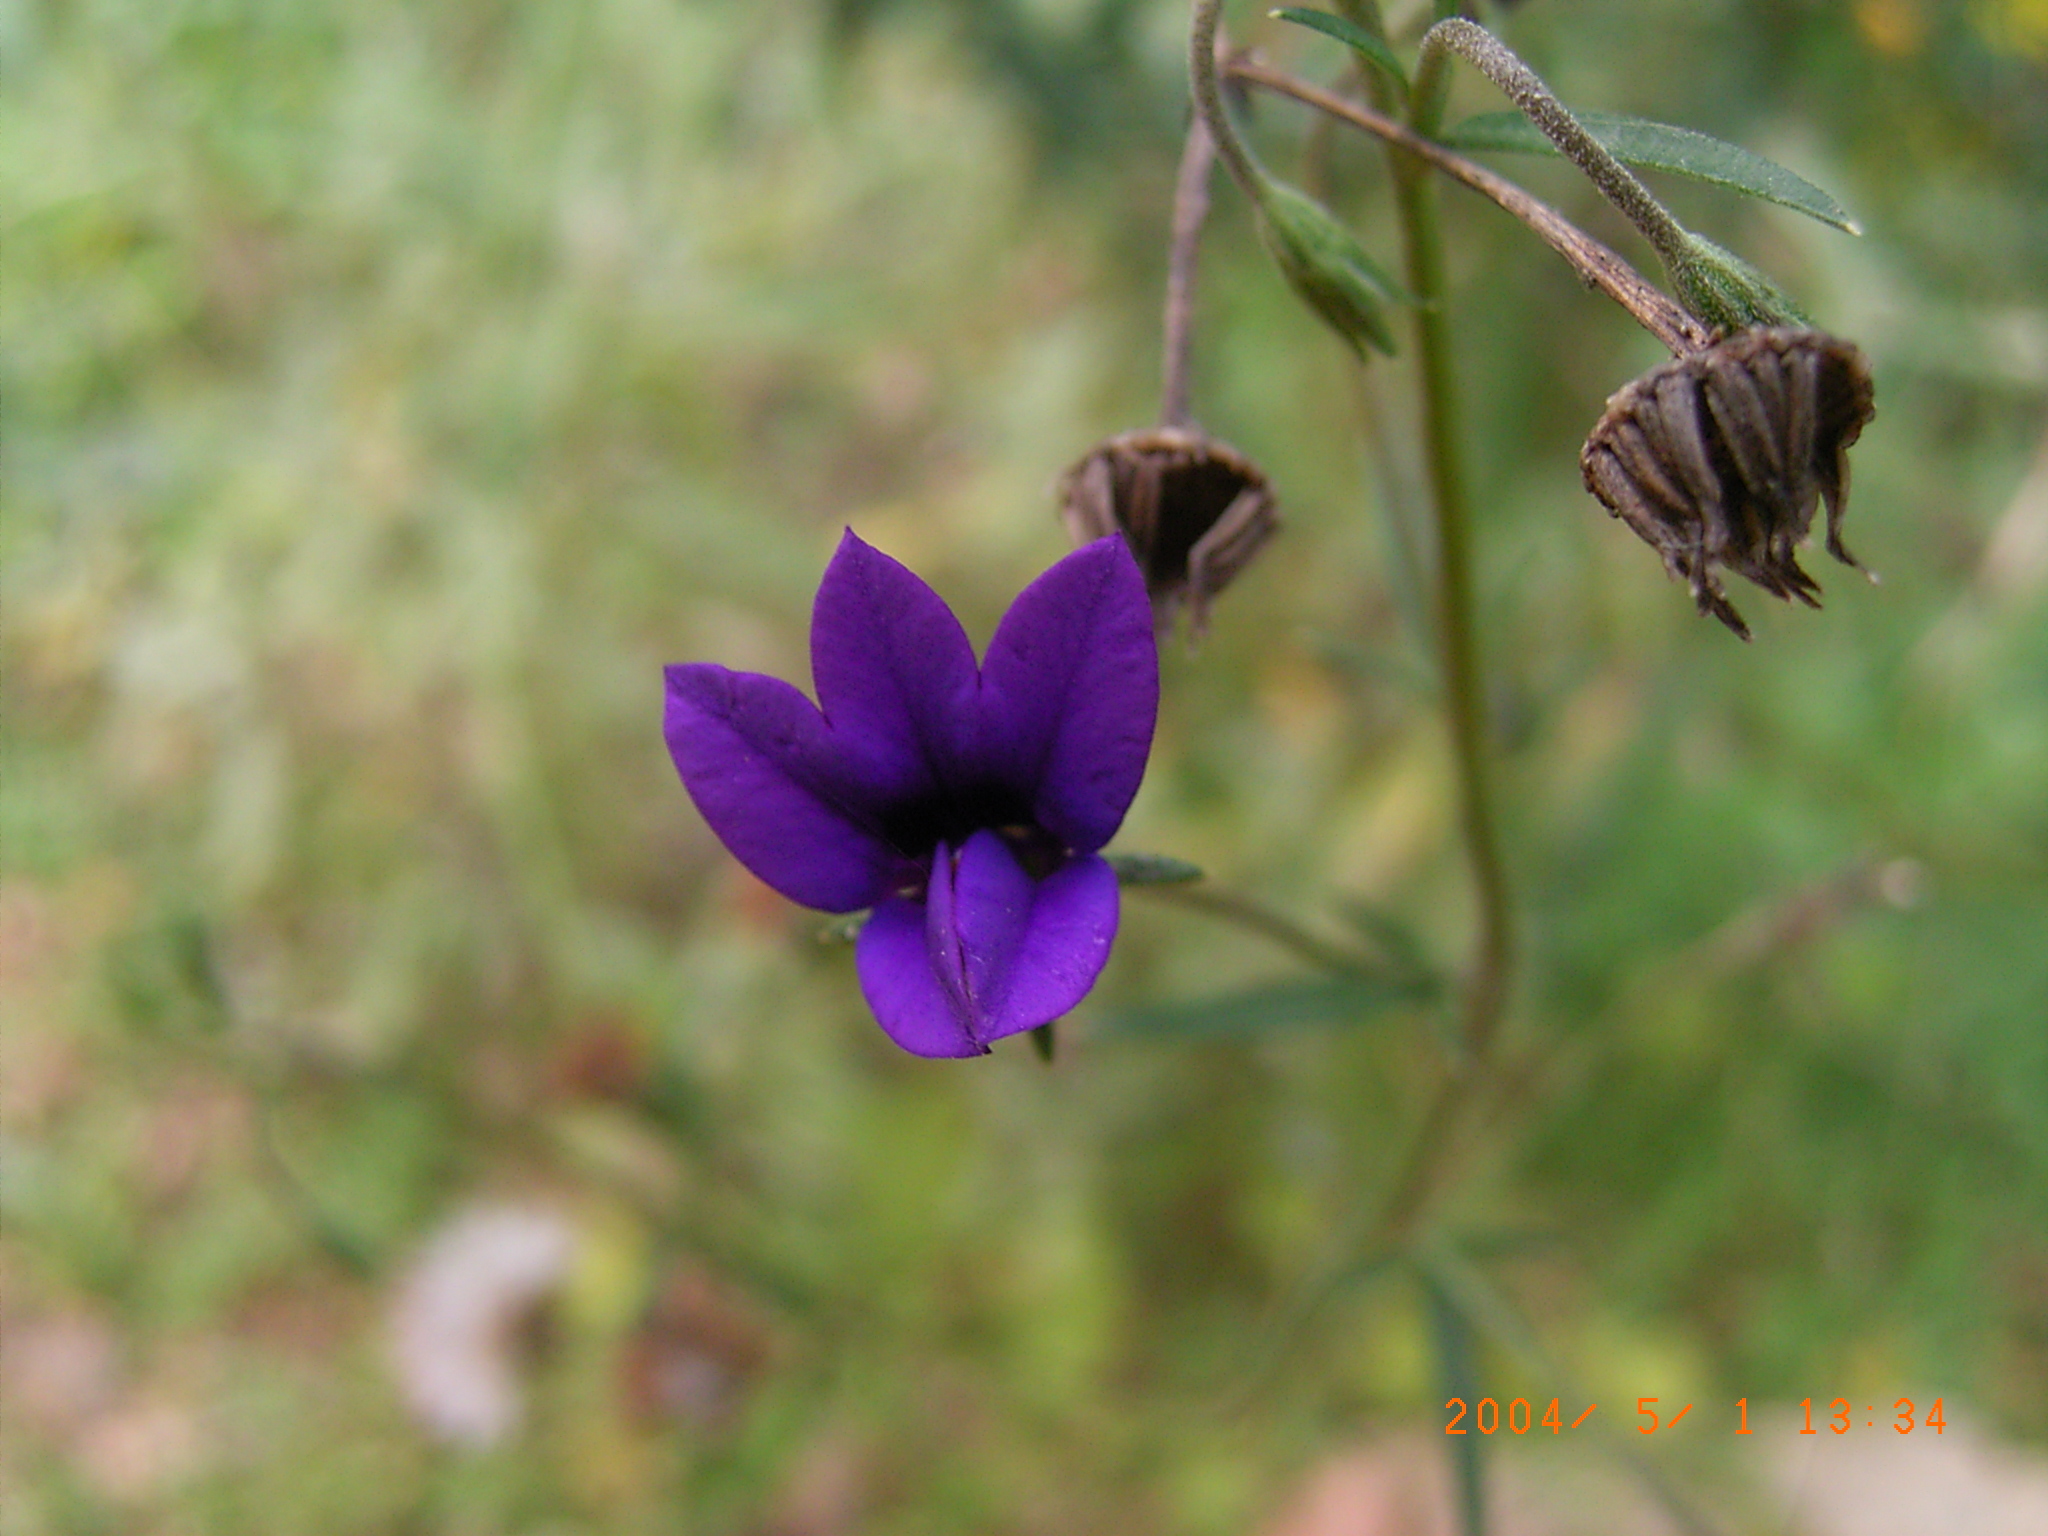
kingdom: Plantae
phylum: Tracheophyta
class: Magnoliopsida
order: Asterales
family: Campanulaceae
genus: Monopsis
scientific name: Monopsis unidentata
